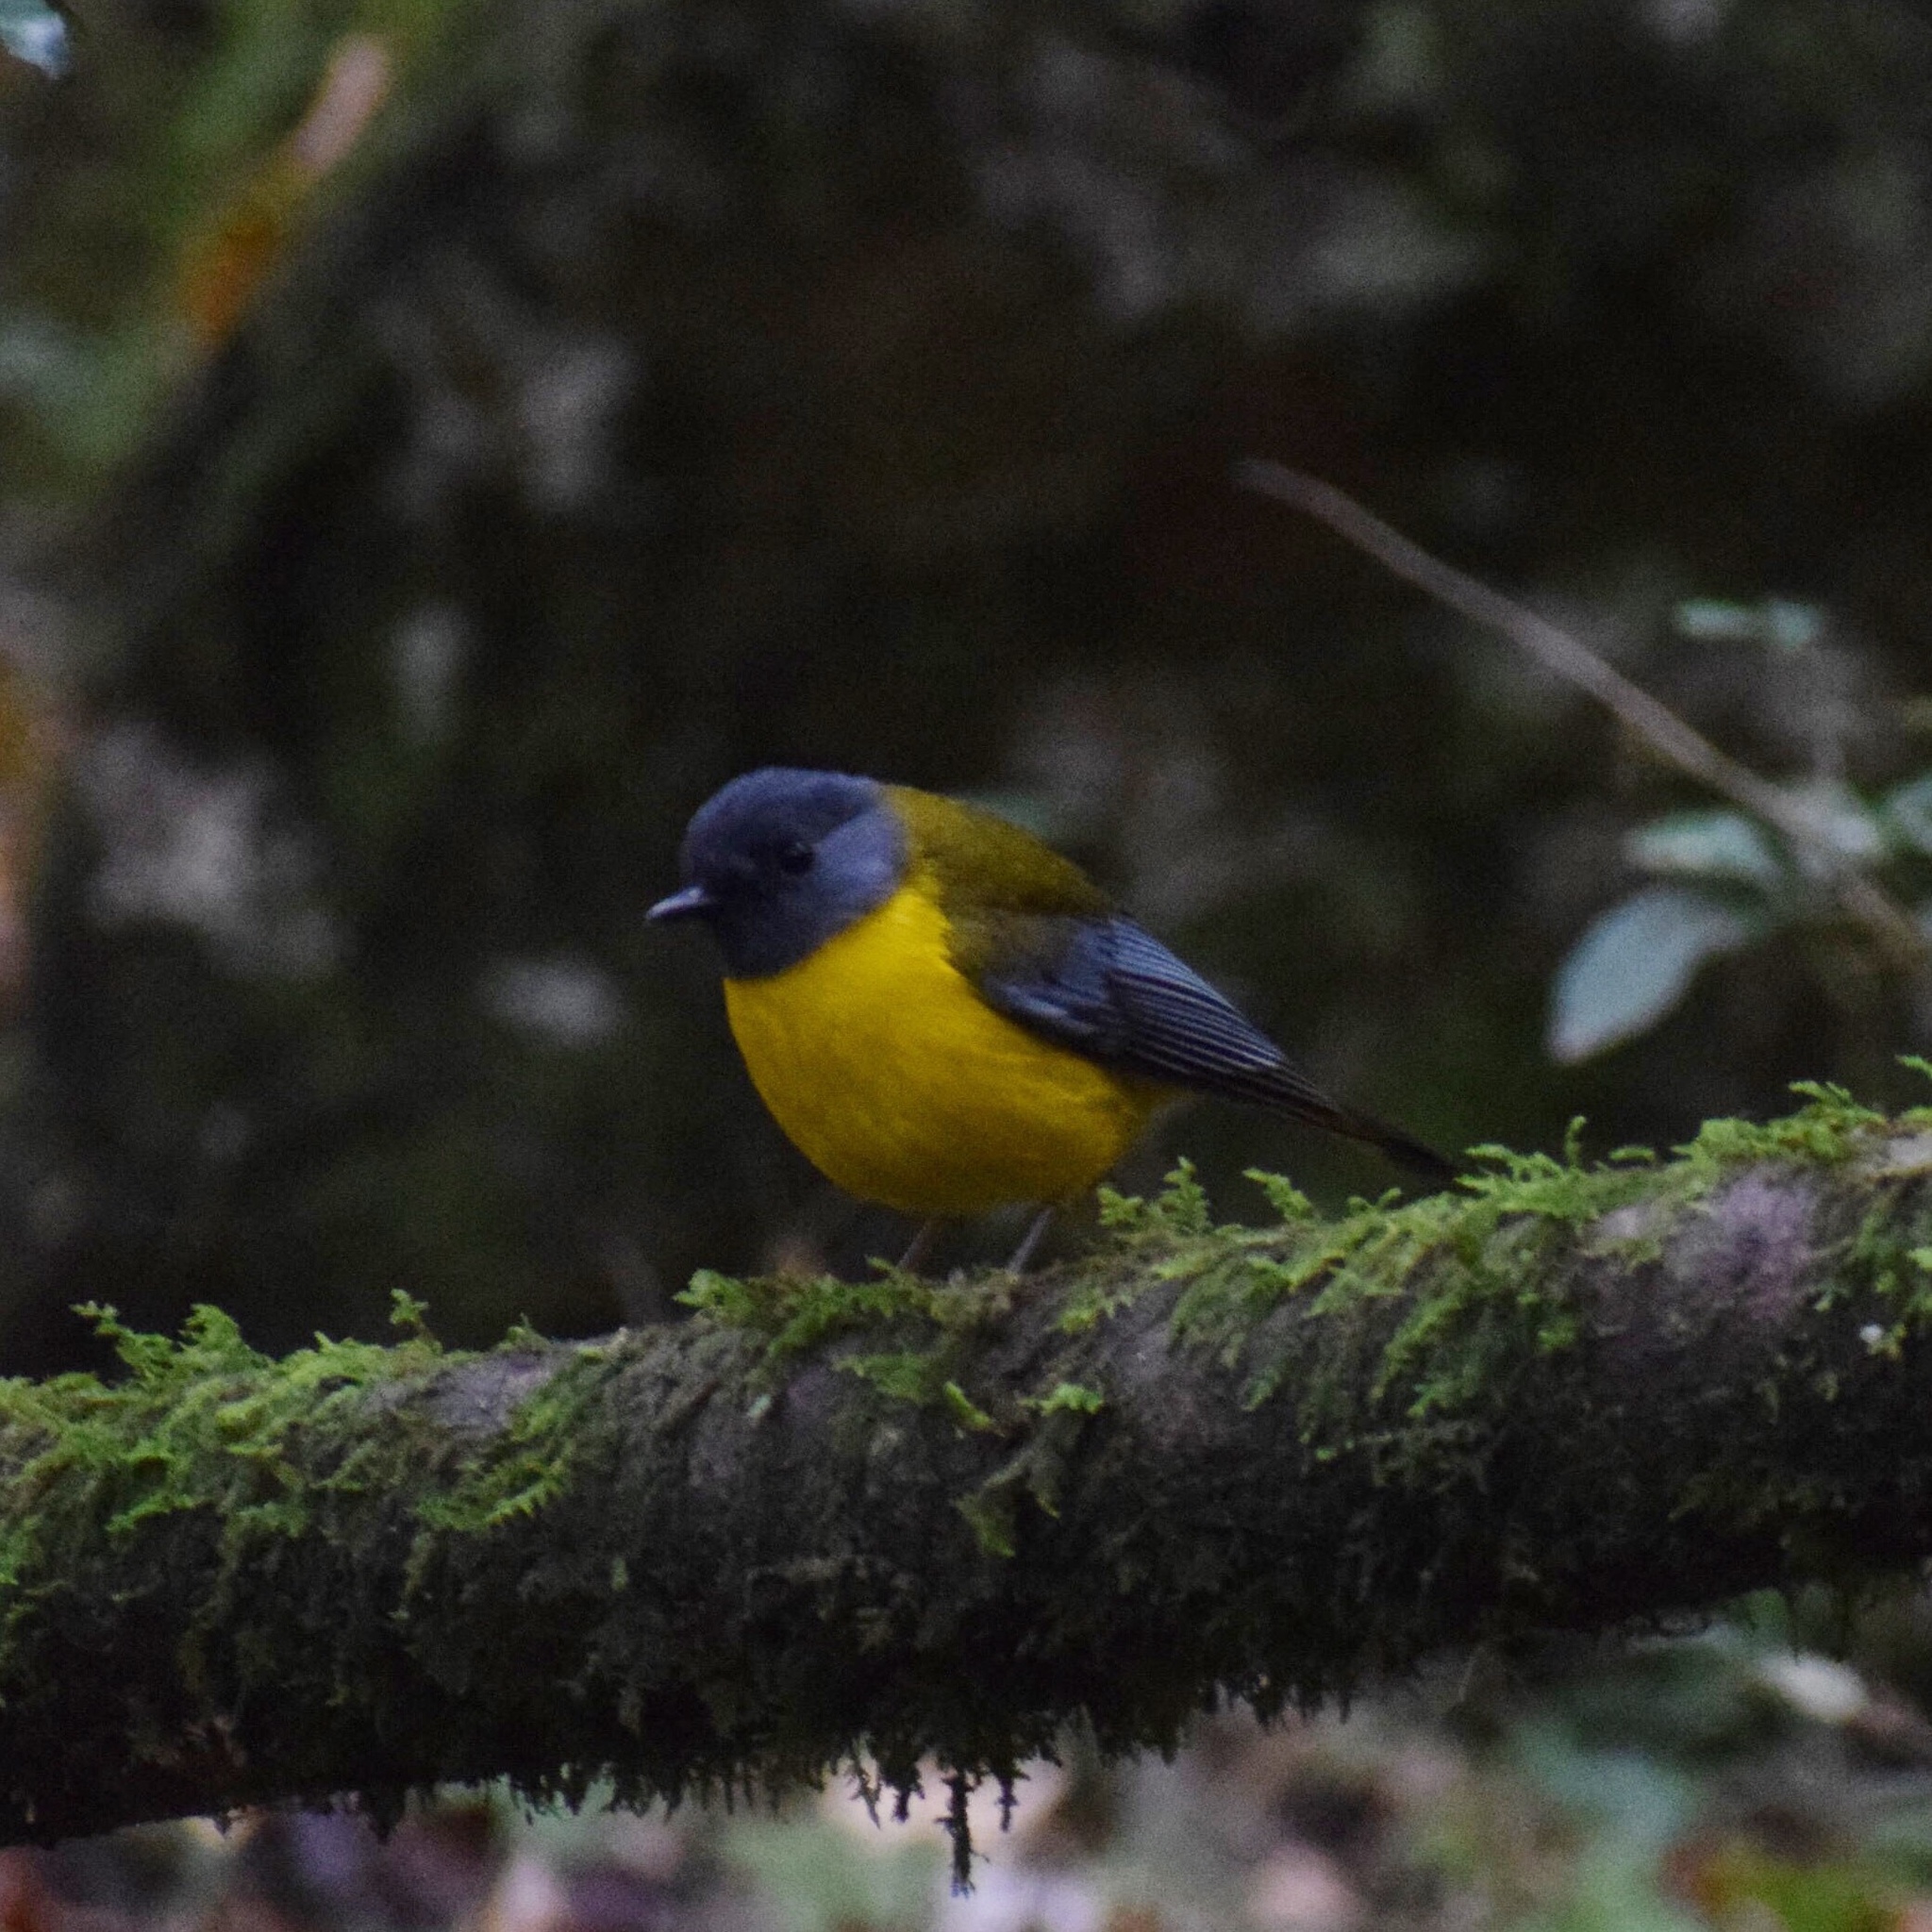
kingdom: Animalia
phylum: Chordata
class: Aves
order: Passeriformes
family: Muscicapidae
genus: Pogonocichla
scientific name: Pogonocichla stellata
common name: White-starred robin
